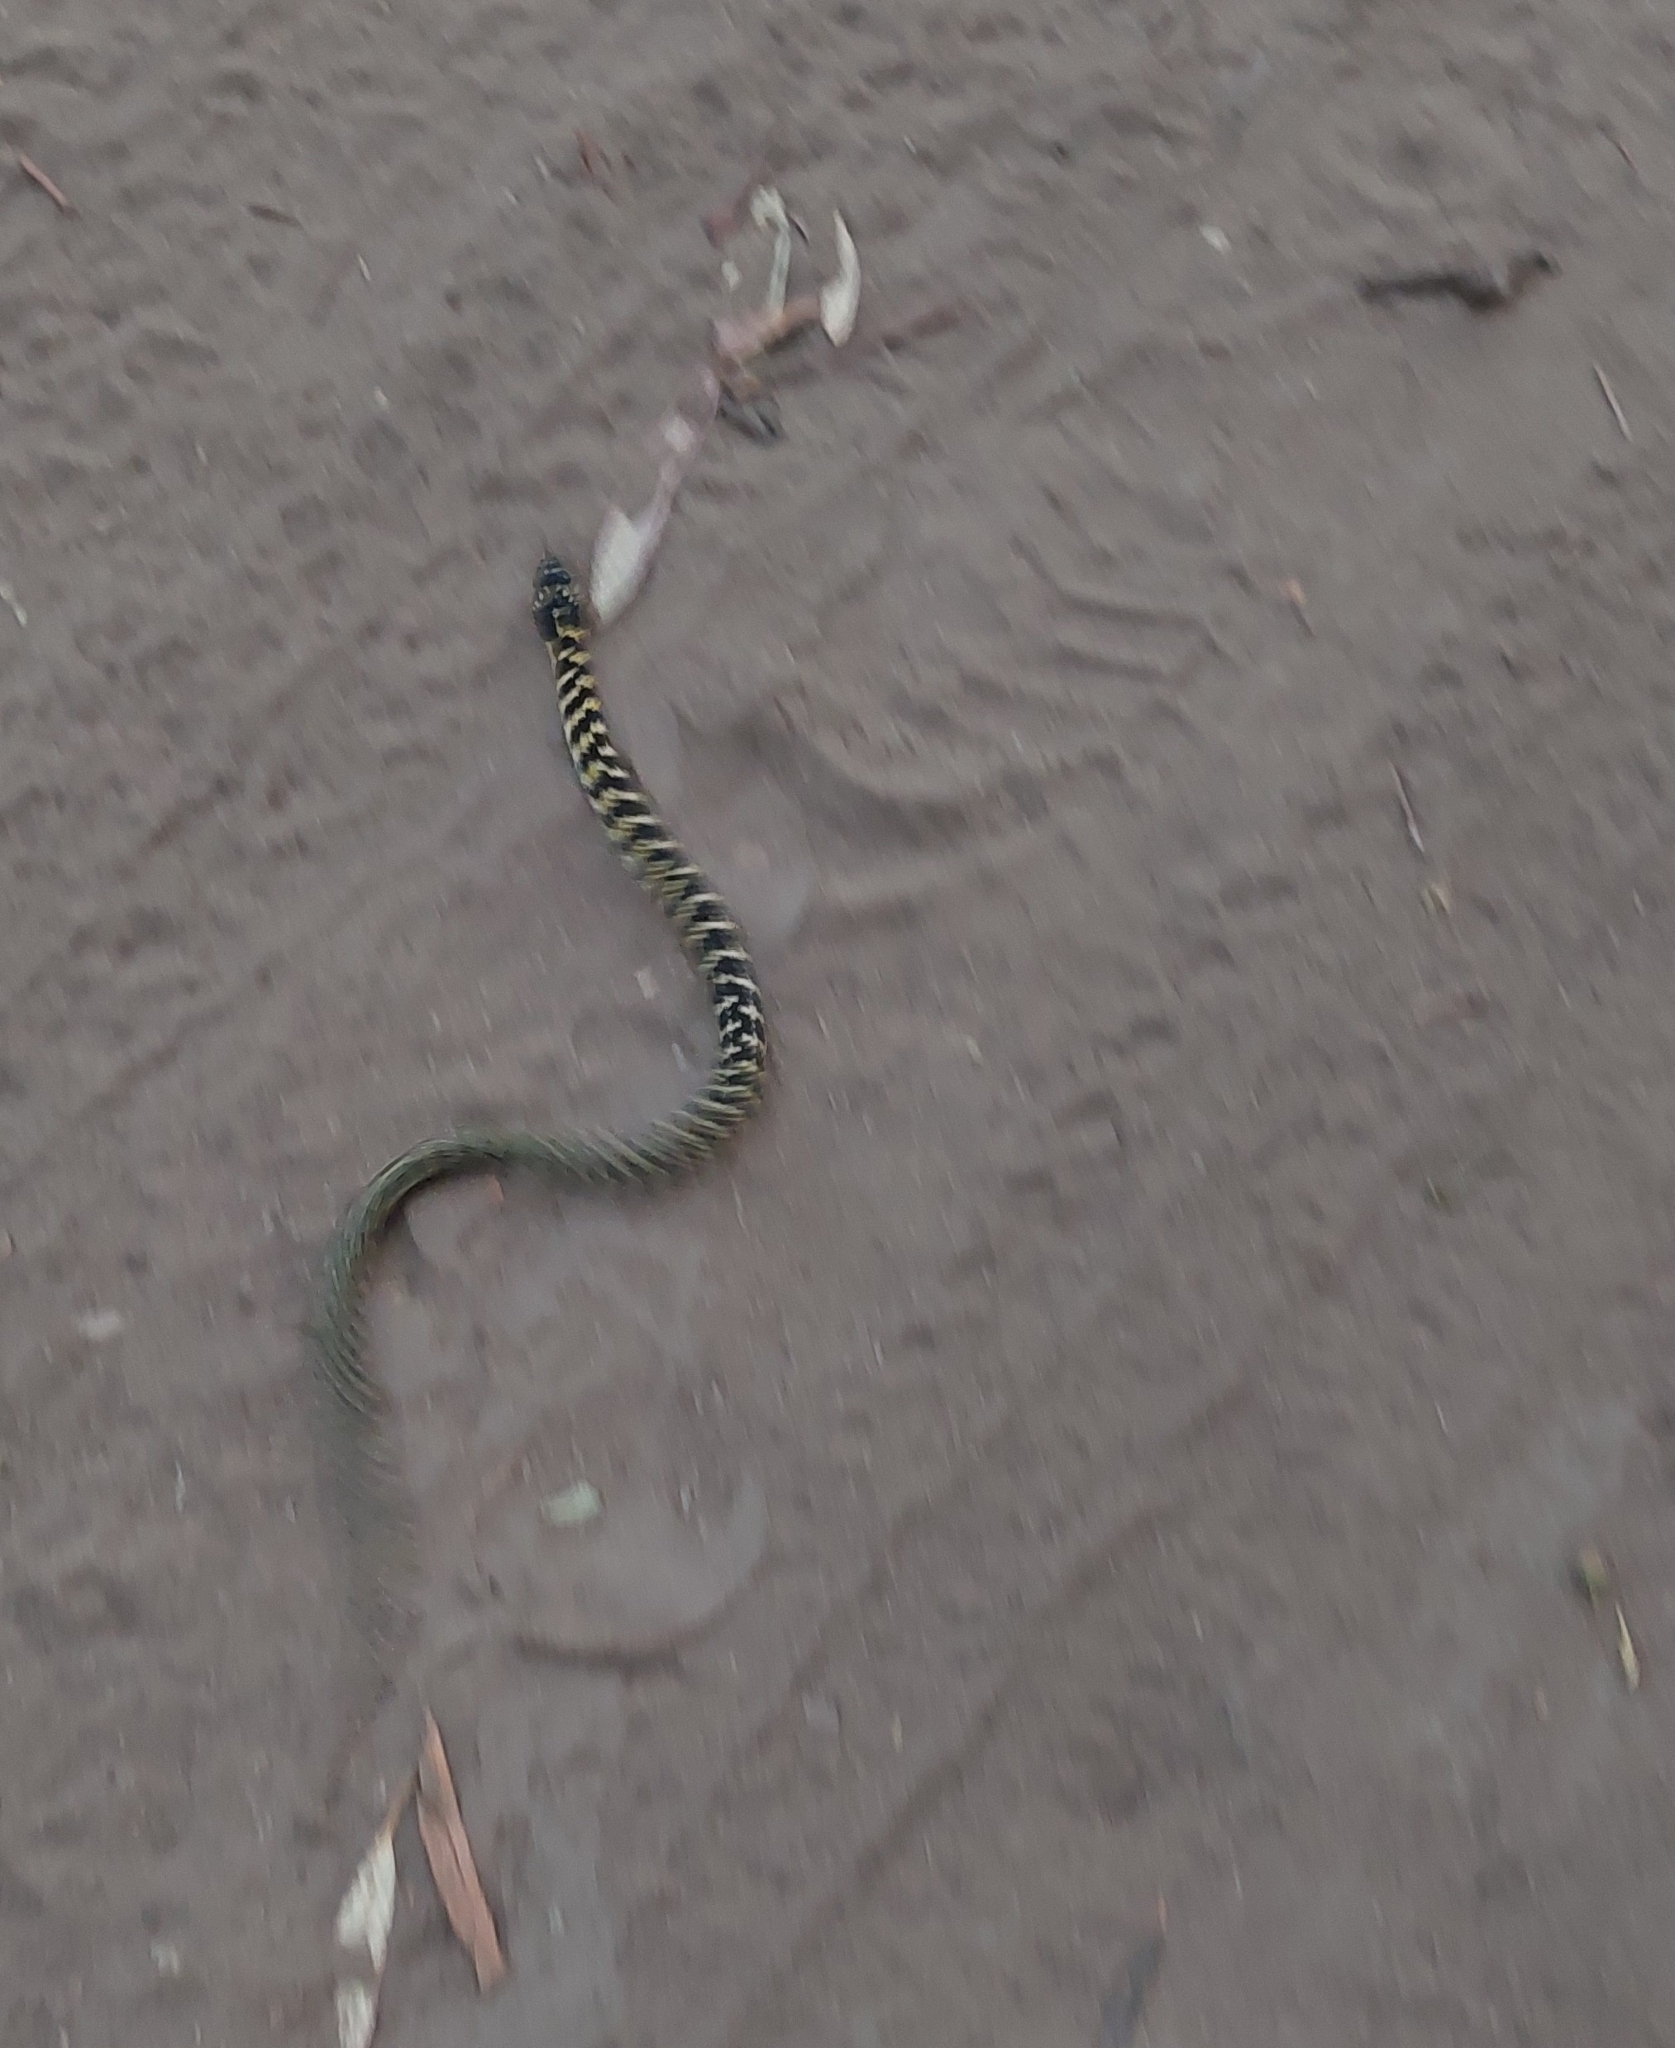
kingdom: Animalia
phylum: Chordata
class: Squamata
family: Colubridae
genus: Erythrolamprus
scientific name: Erythrolamprus poecilogyrus
